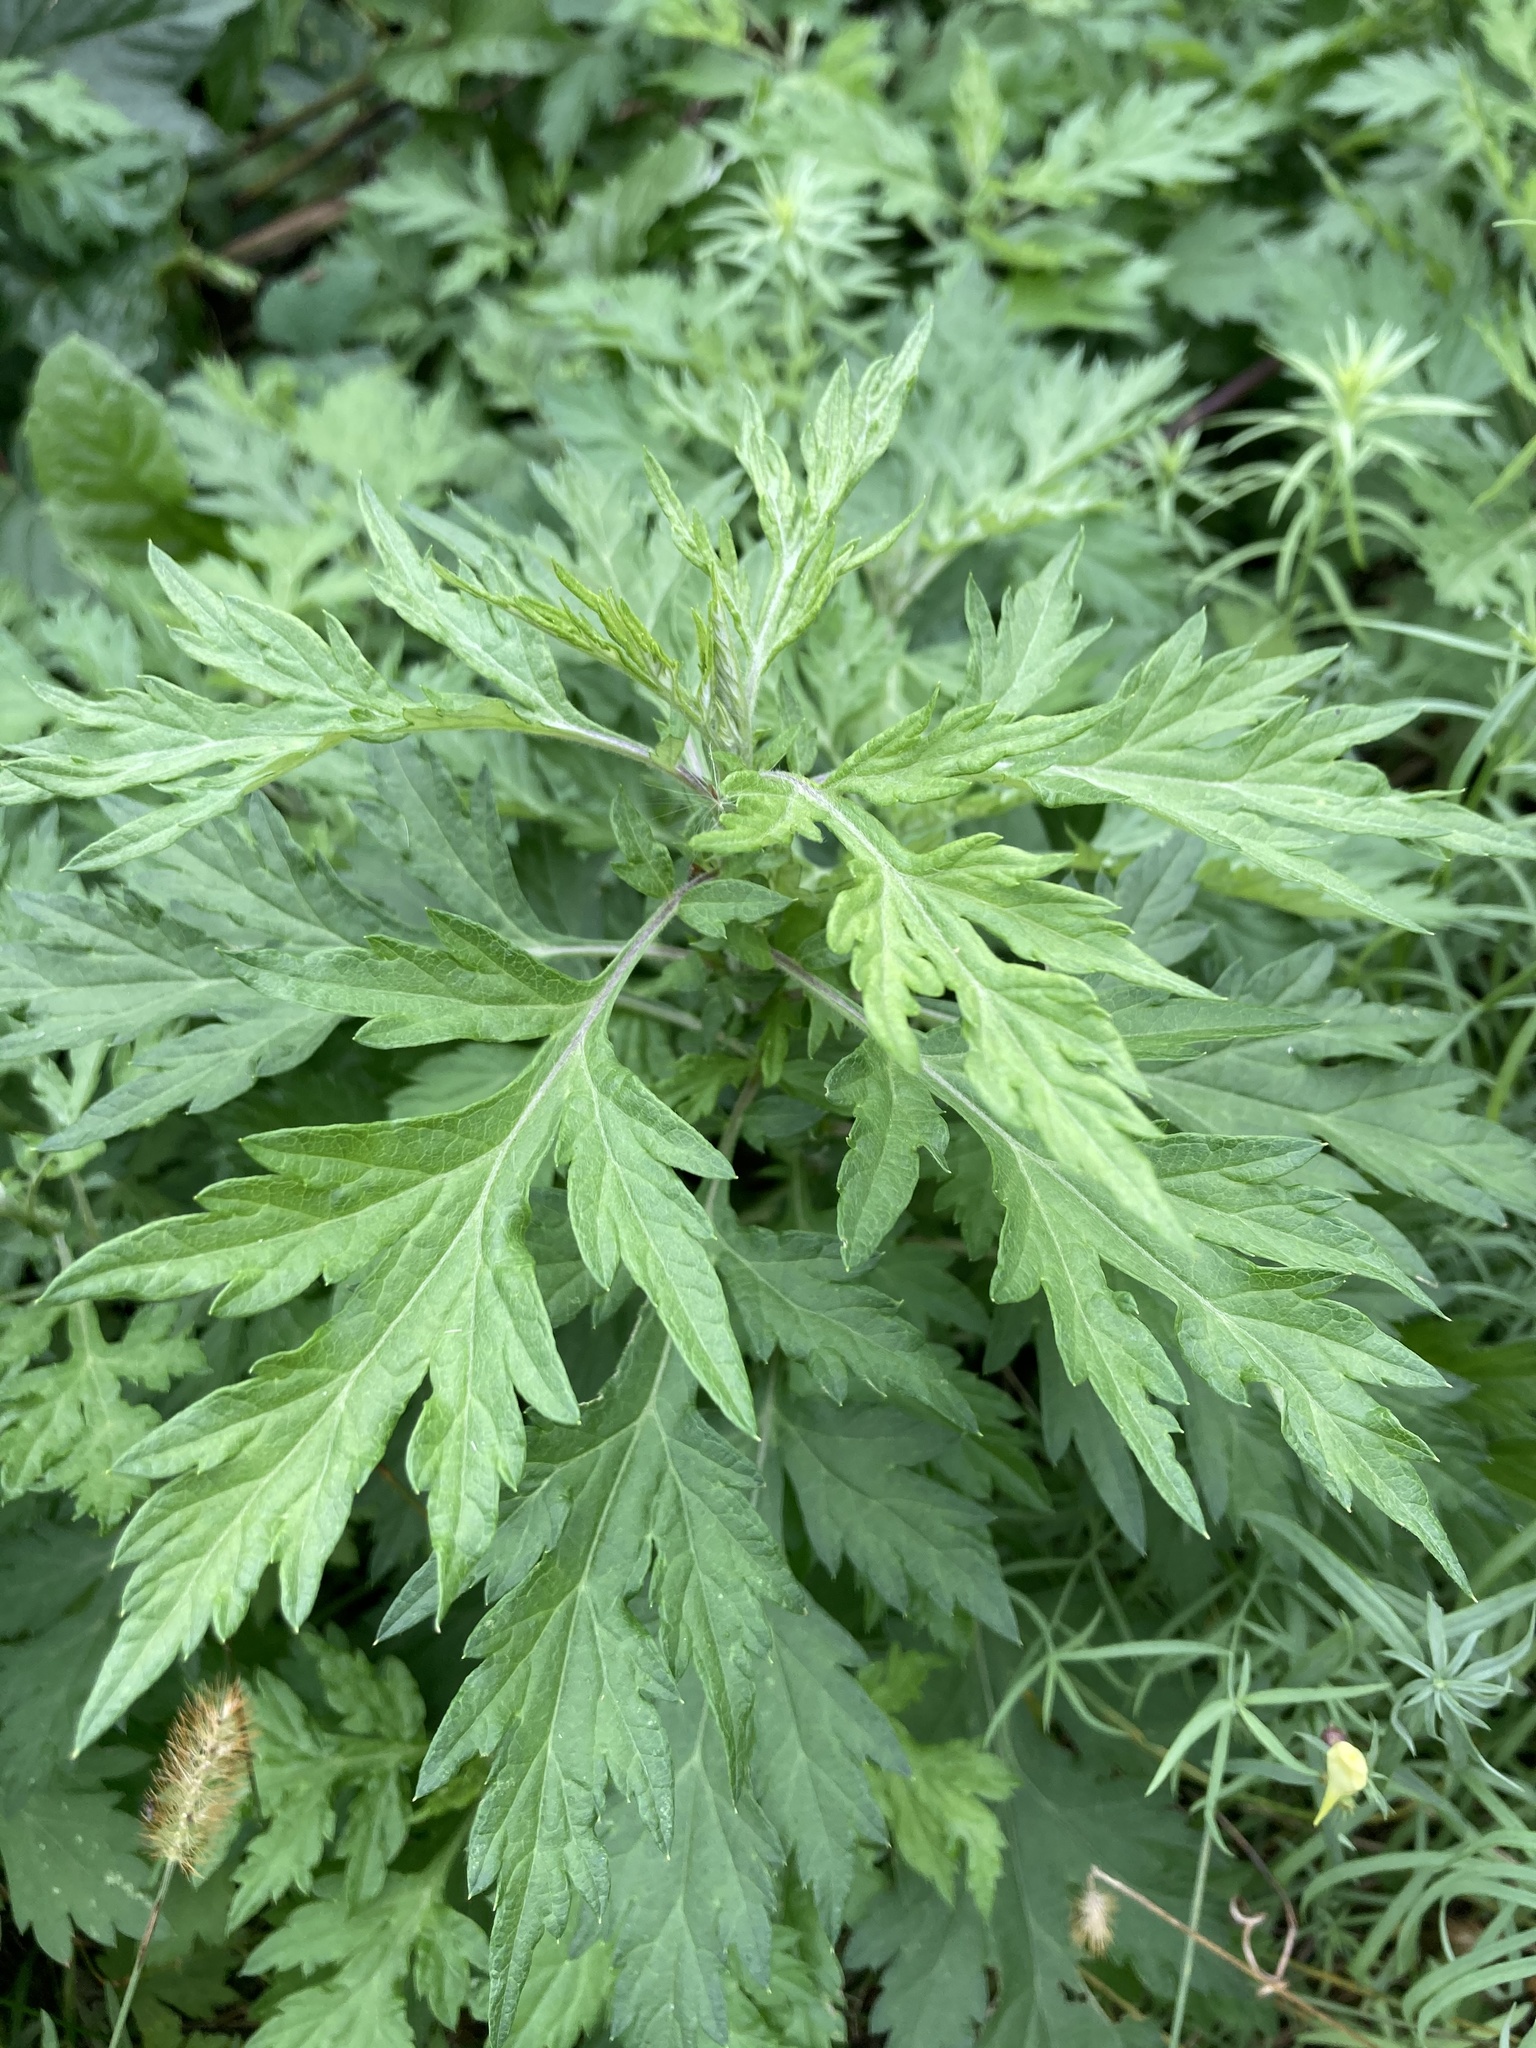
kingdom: Plantae
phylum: Tracheophyta
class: Magnoliopsida
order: Asterales
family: Asteraceae
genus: Artemisia
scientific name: Artemisia vulgaris
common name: Mugwort
